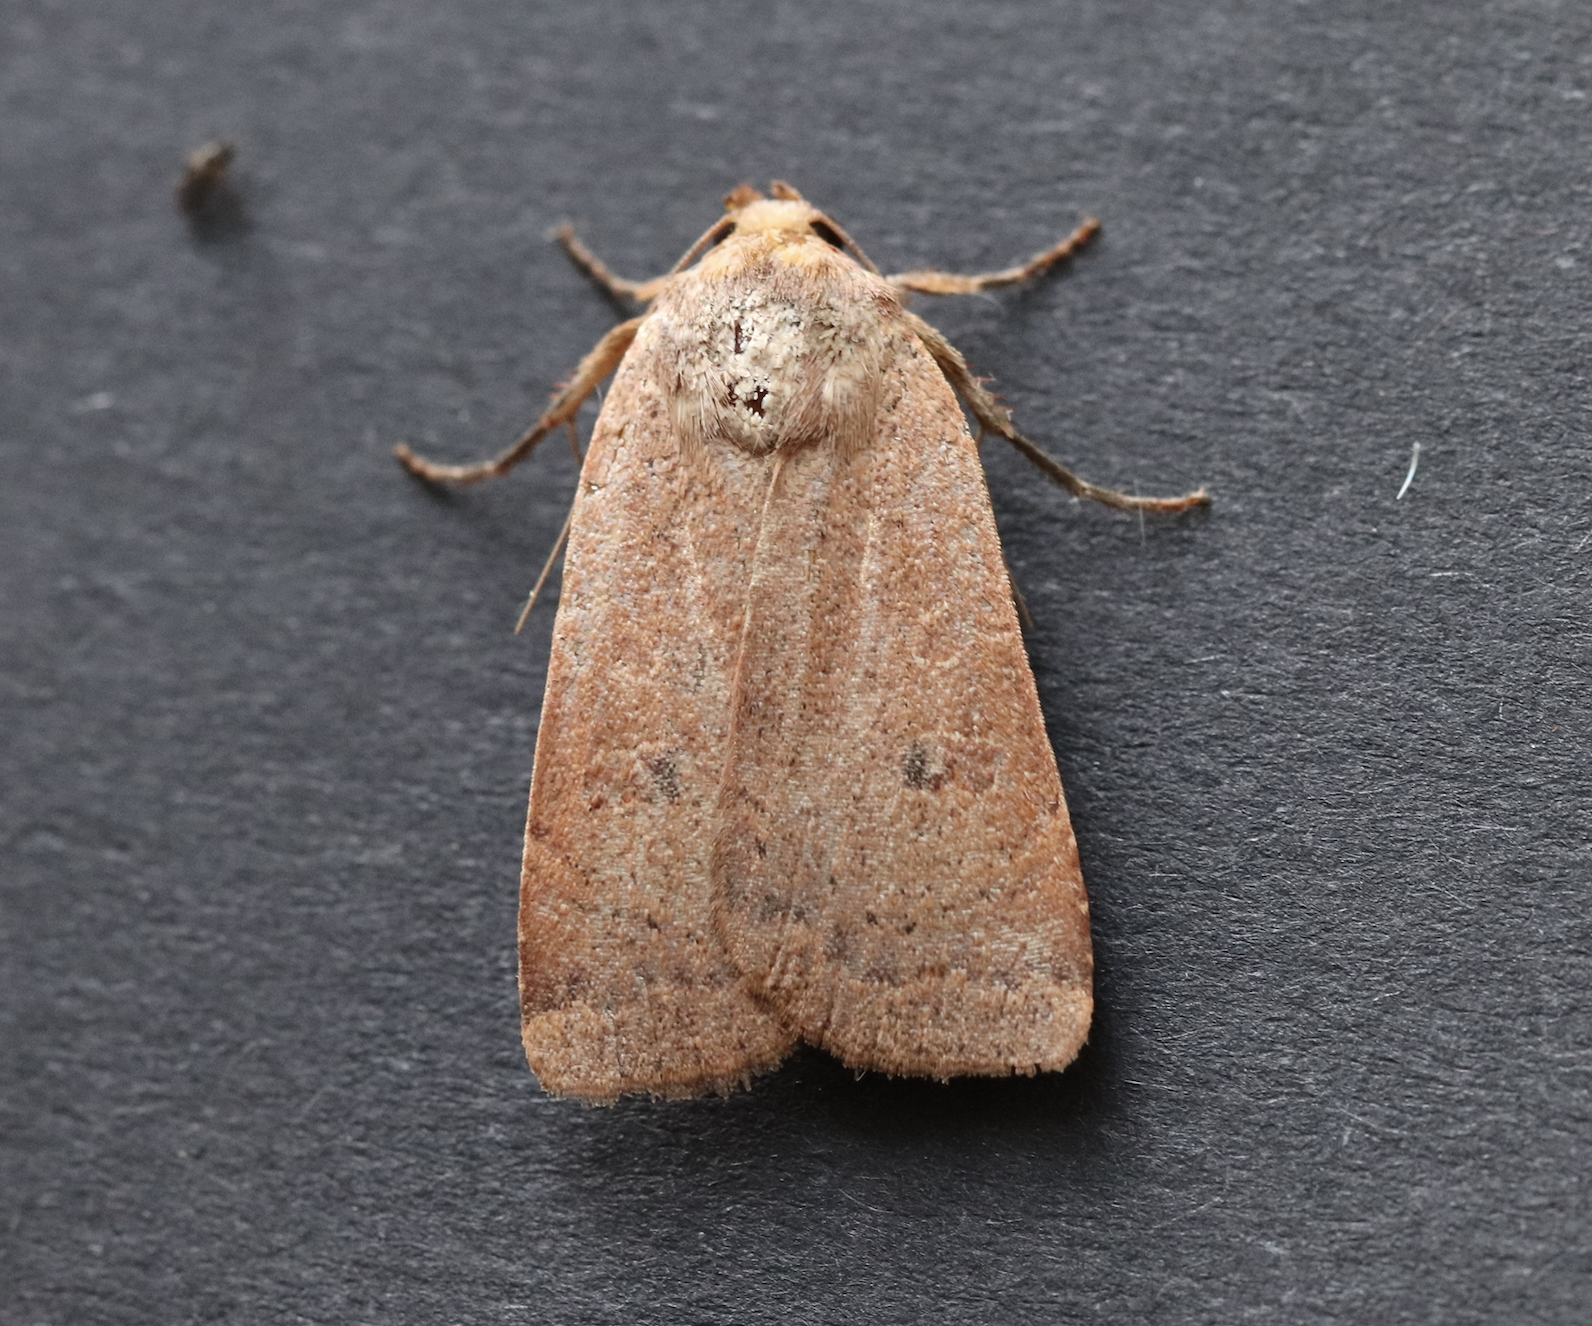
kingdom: Animalia
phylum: Arthropoda
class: Insecta
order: Lepidoptera
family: Noctuidae
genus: Noctua
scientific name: Noctua comes
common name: Lesser yellow underwing
